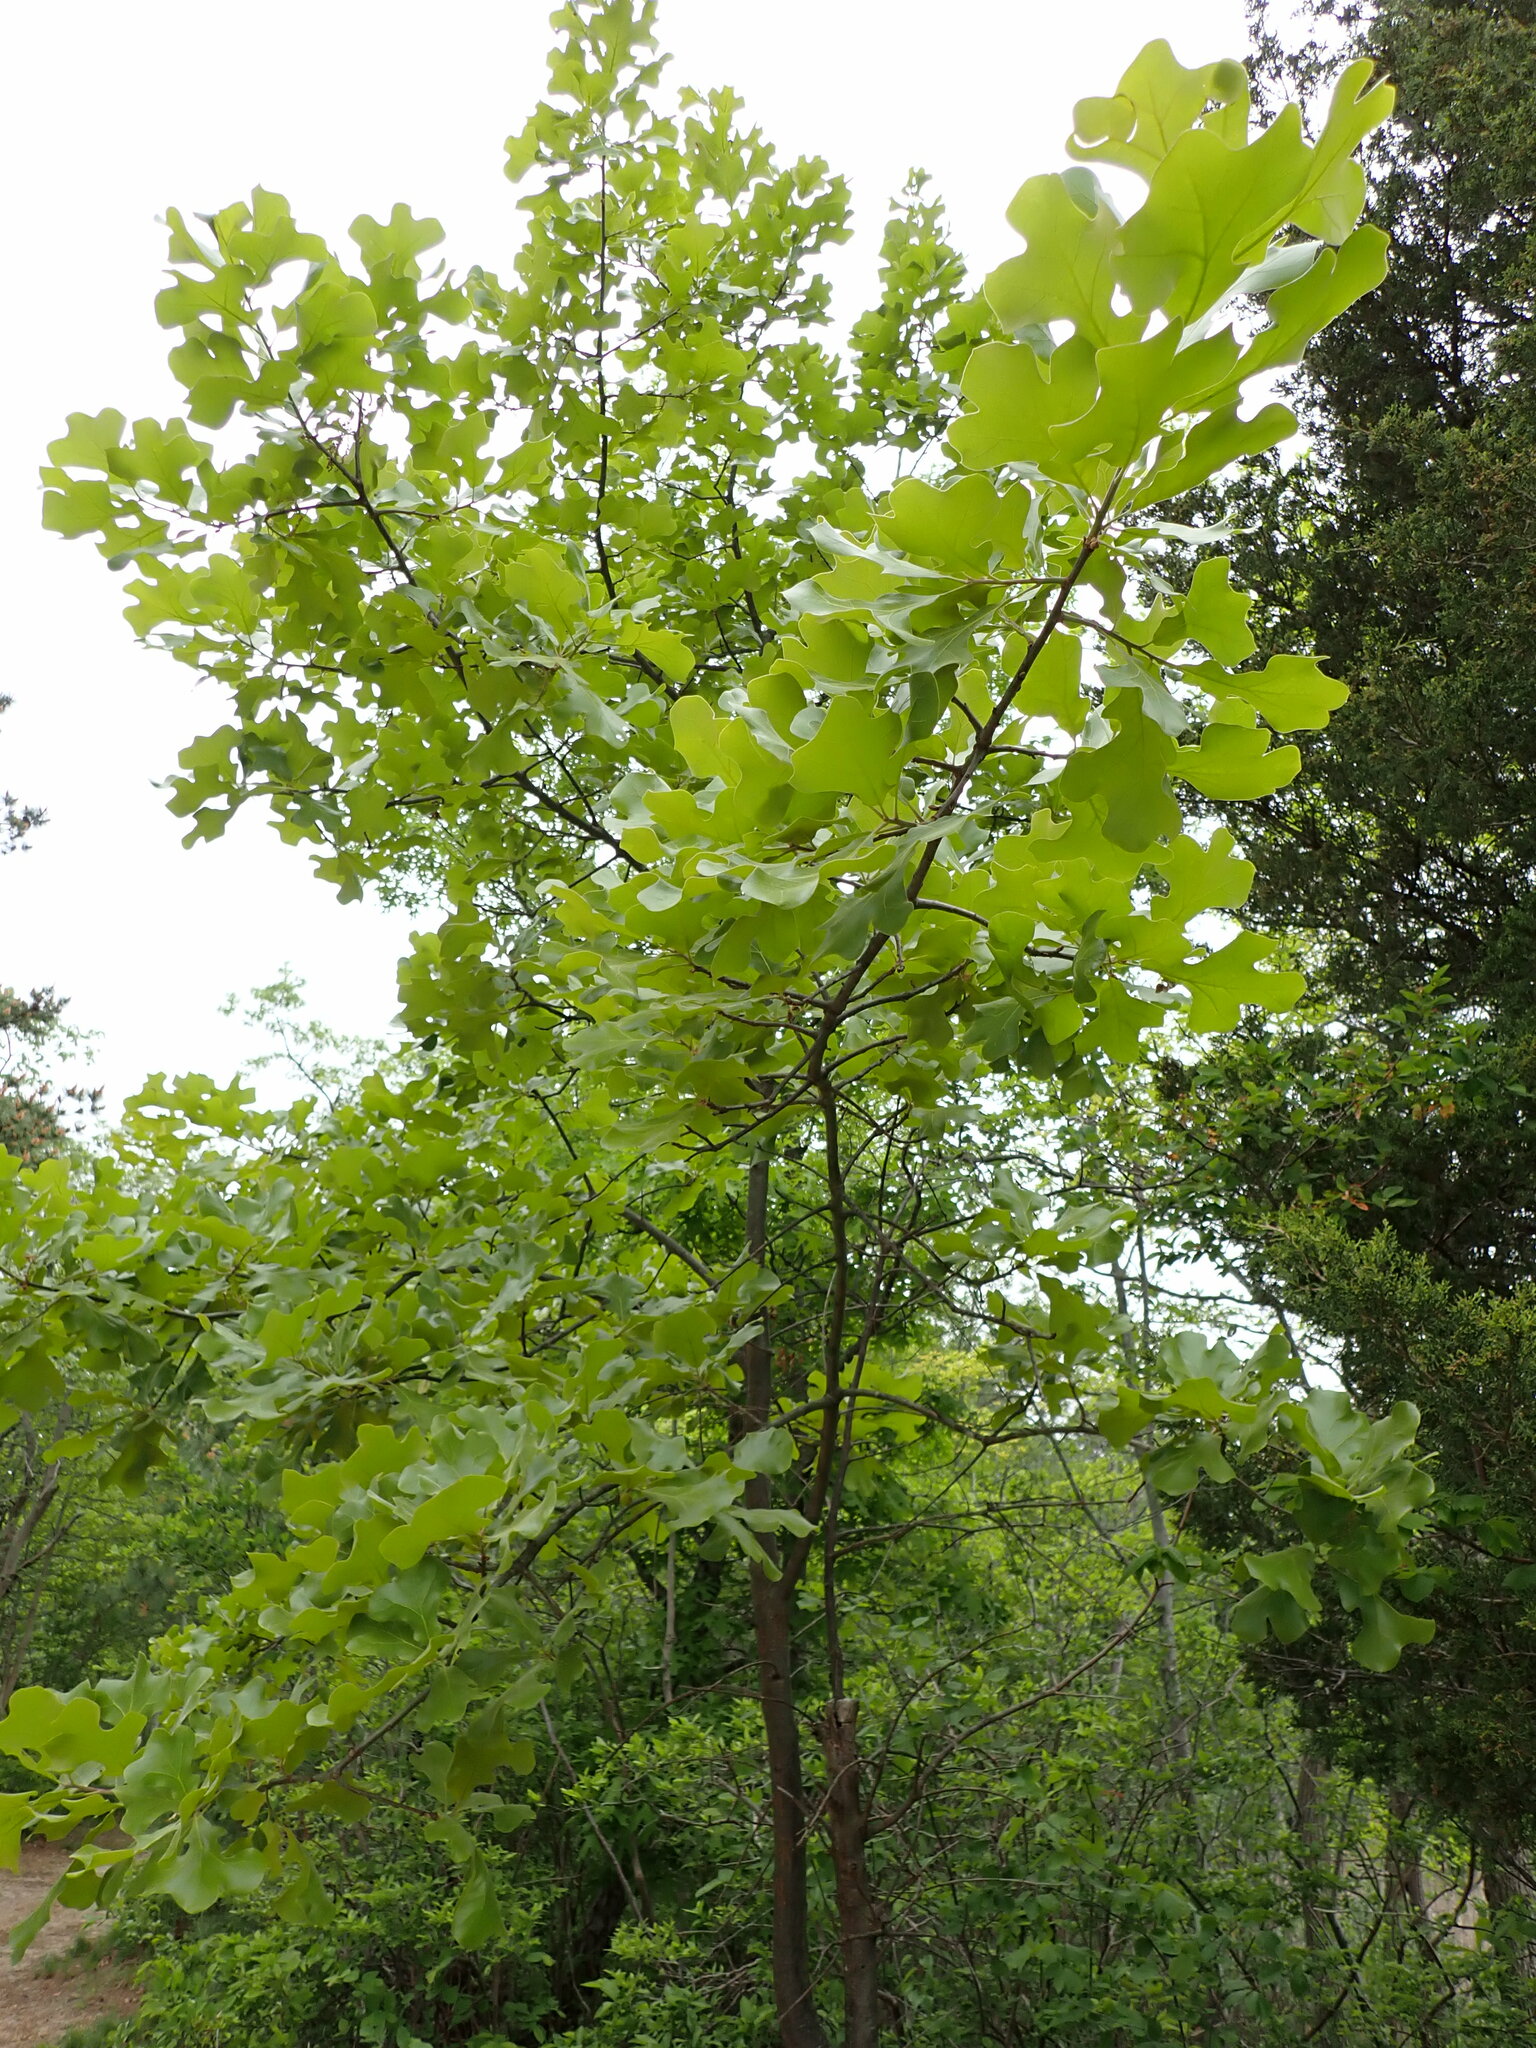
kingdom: Plantae
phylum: Tracheophyta
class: Magnoliopsida
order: Fagales
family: Fagaceae
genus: Quercus
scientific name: Quercus marilandica
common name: Blackjack oak
